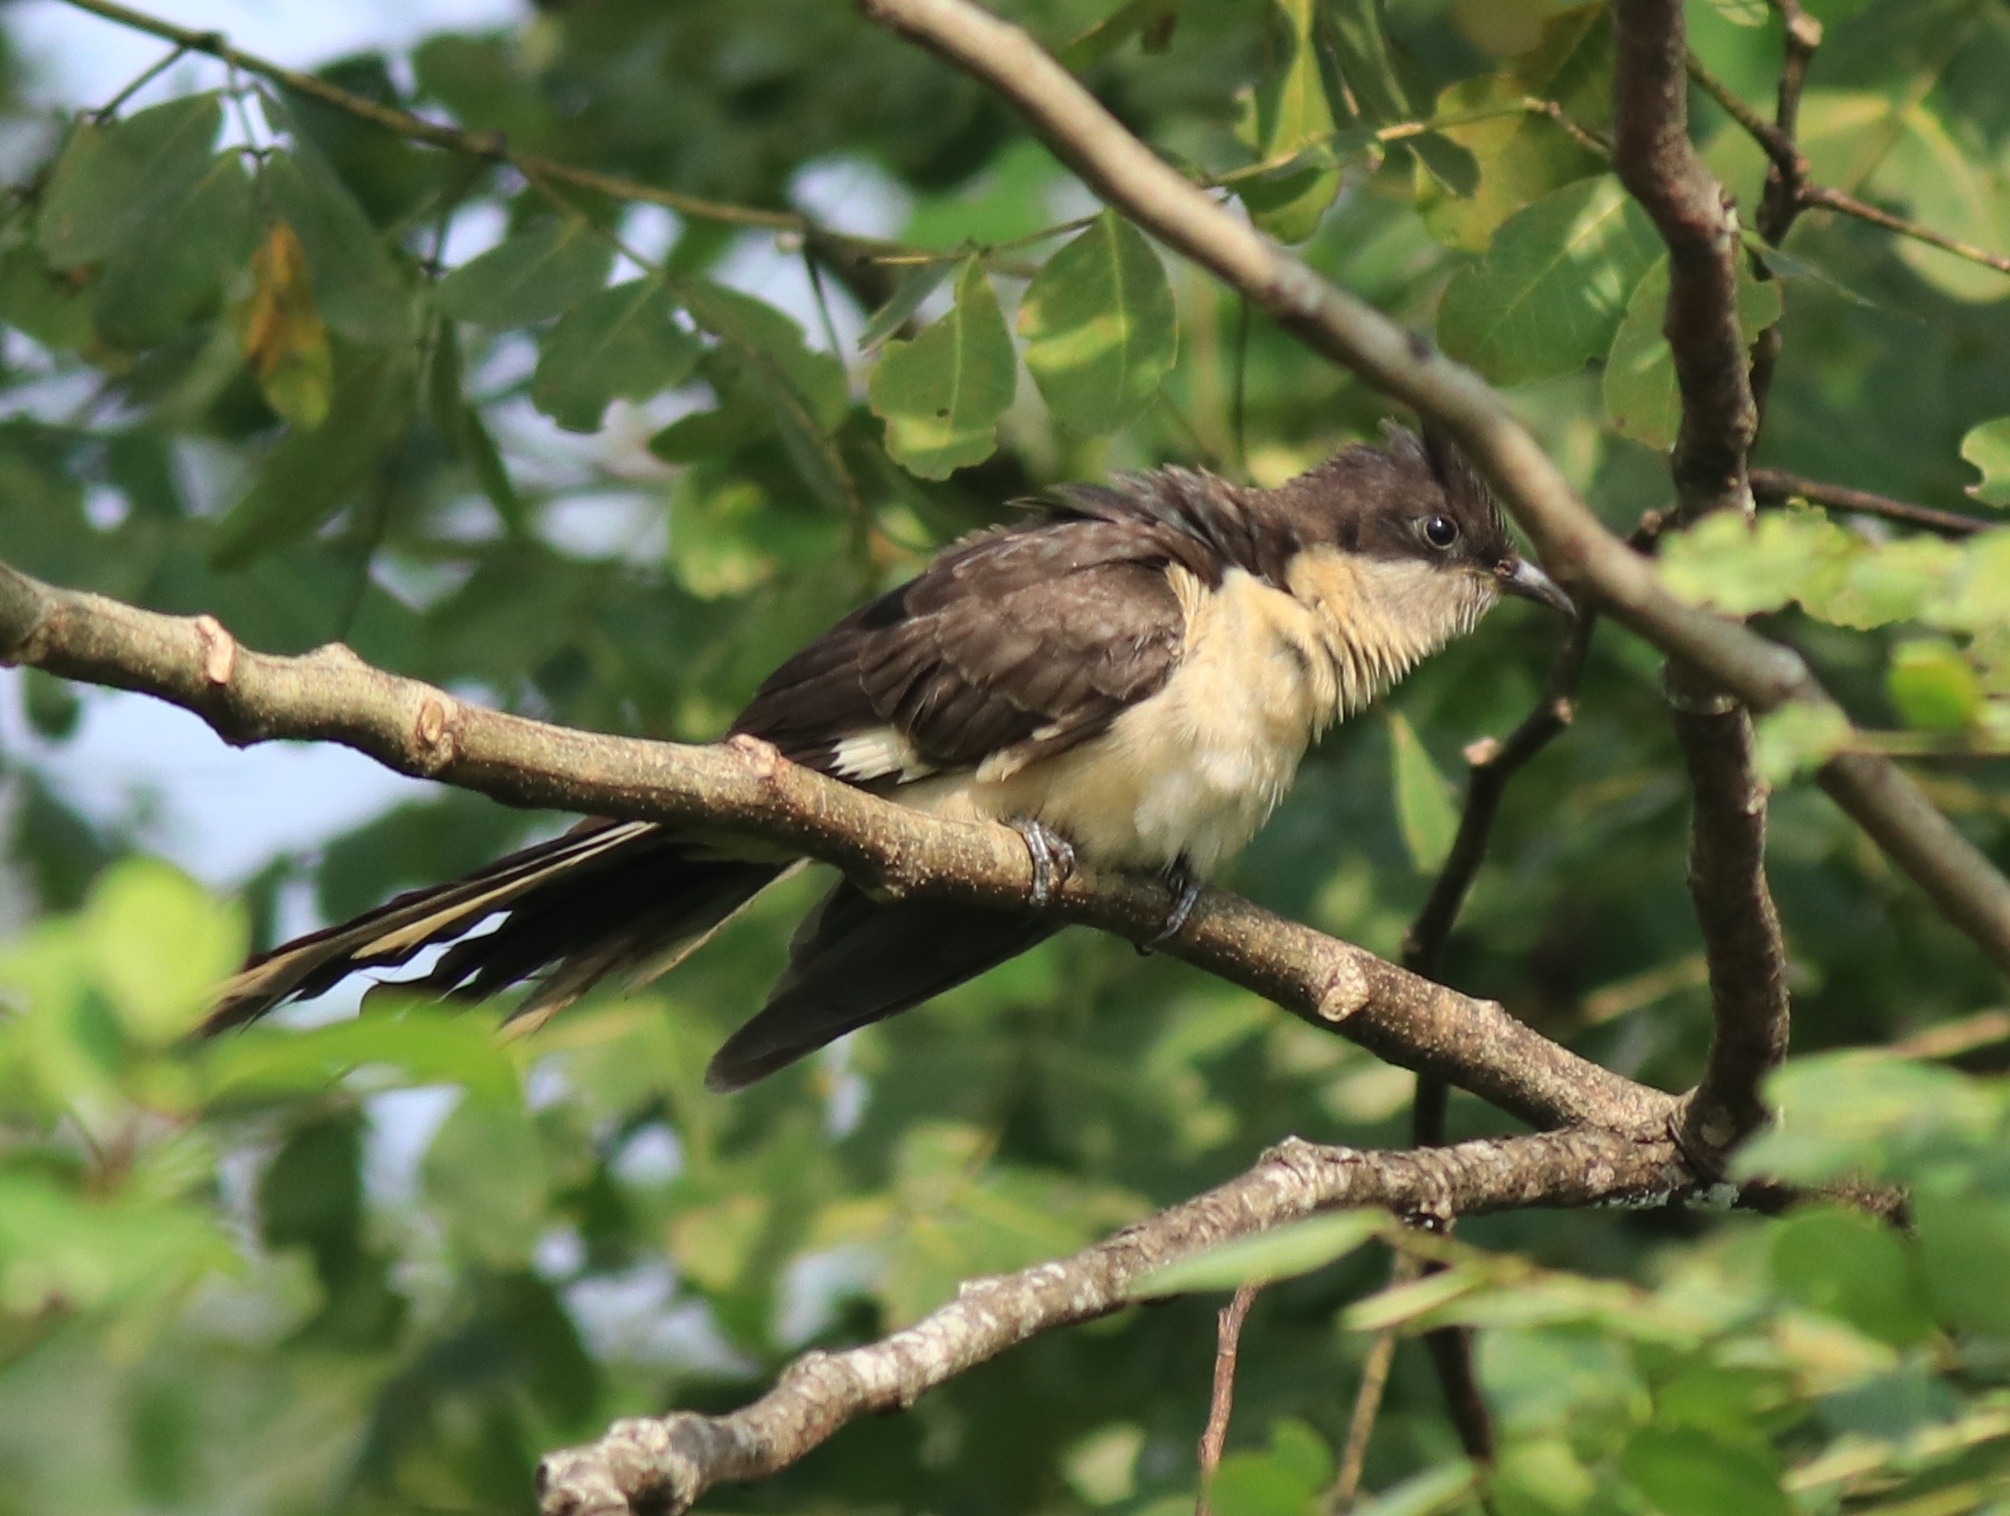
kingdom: Animalia
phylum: Chordata
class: Aves
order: Cuculiformes
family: Cuculidae
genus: Clamator
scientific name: Clamator jacobinus
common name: Jacobin cuckoo
